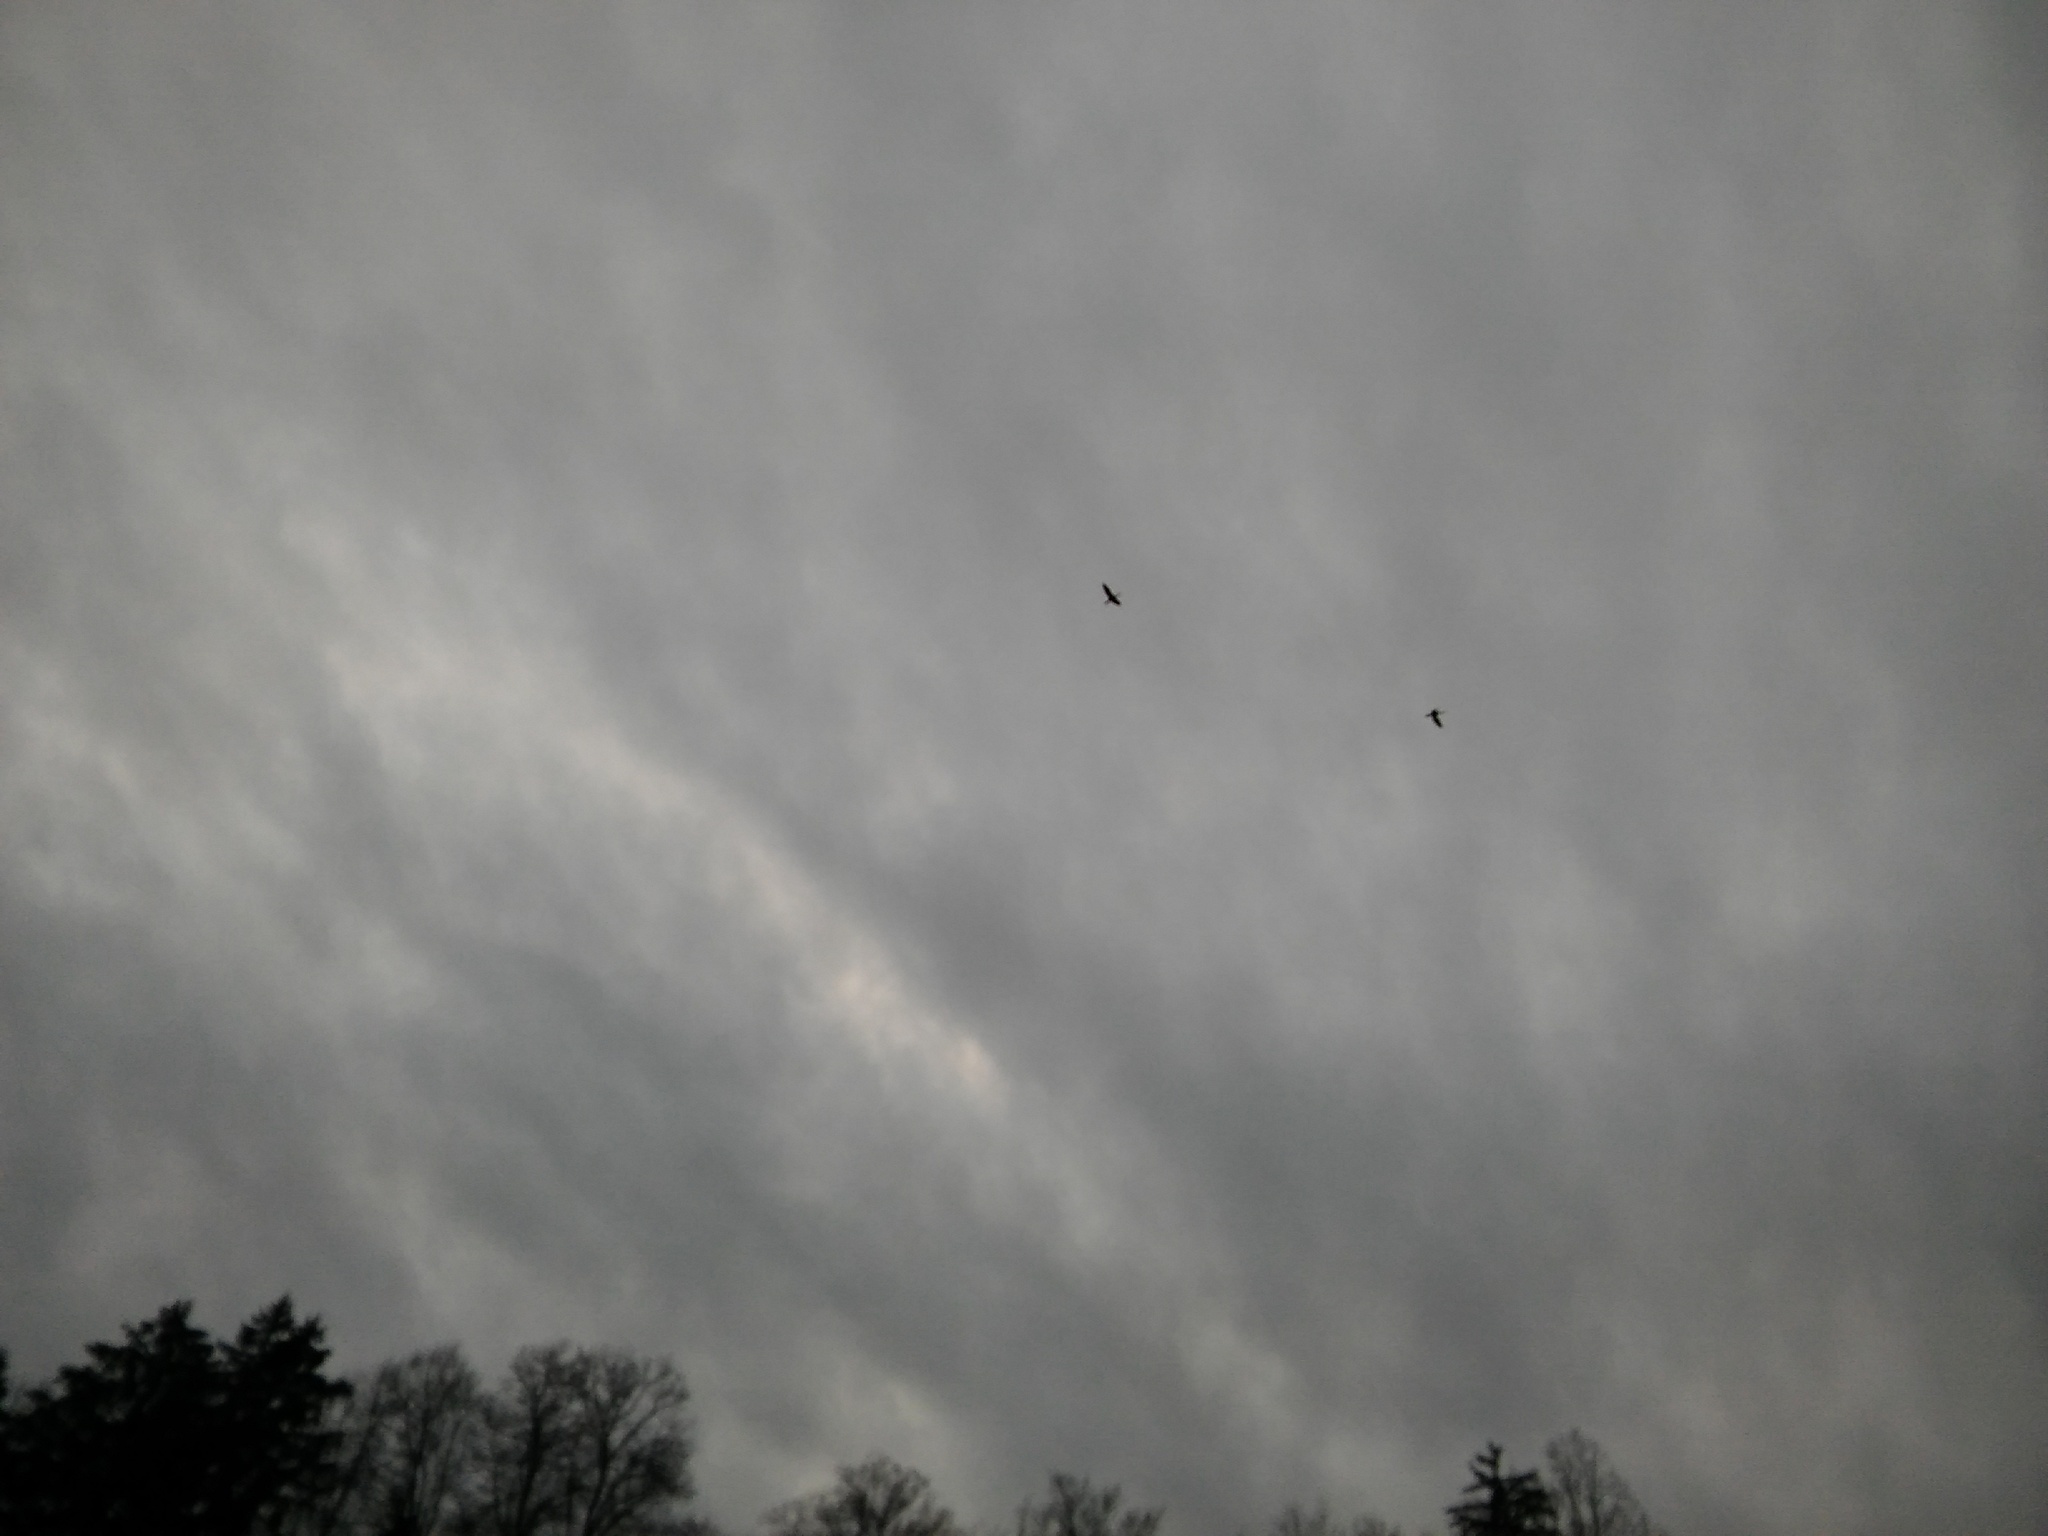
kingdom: Animalia
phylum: Chordata
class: Aves
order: Suliformes
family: Phalacrocoracidae
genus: Phalacrocorax
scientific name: Phalacrocorax carbo
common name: Great cormorant
